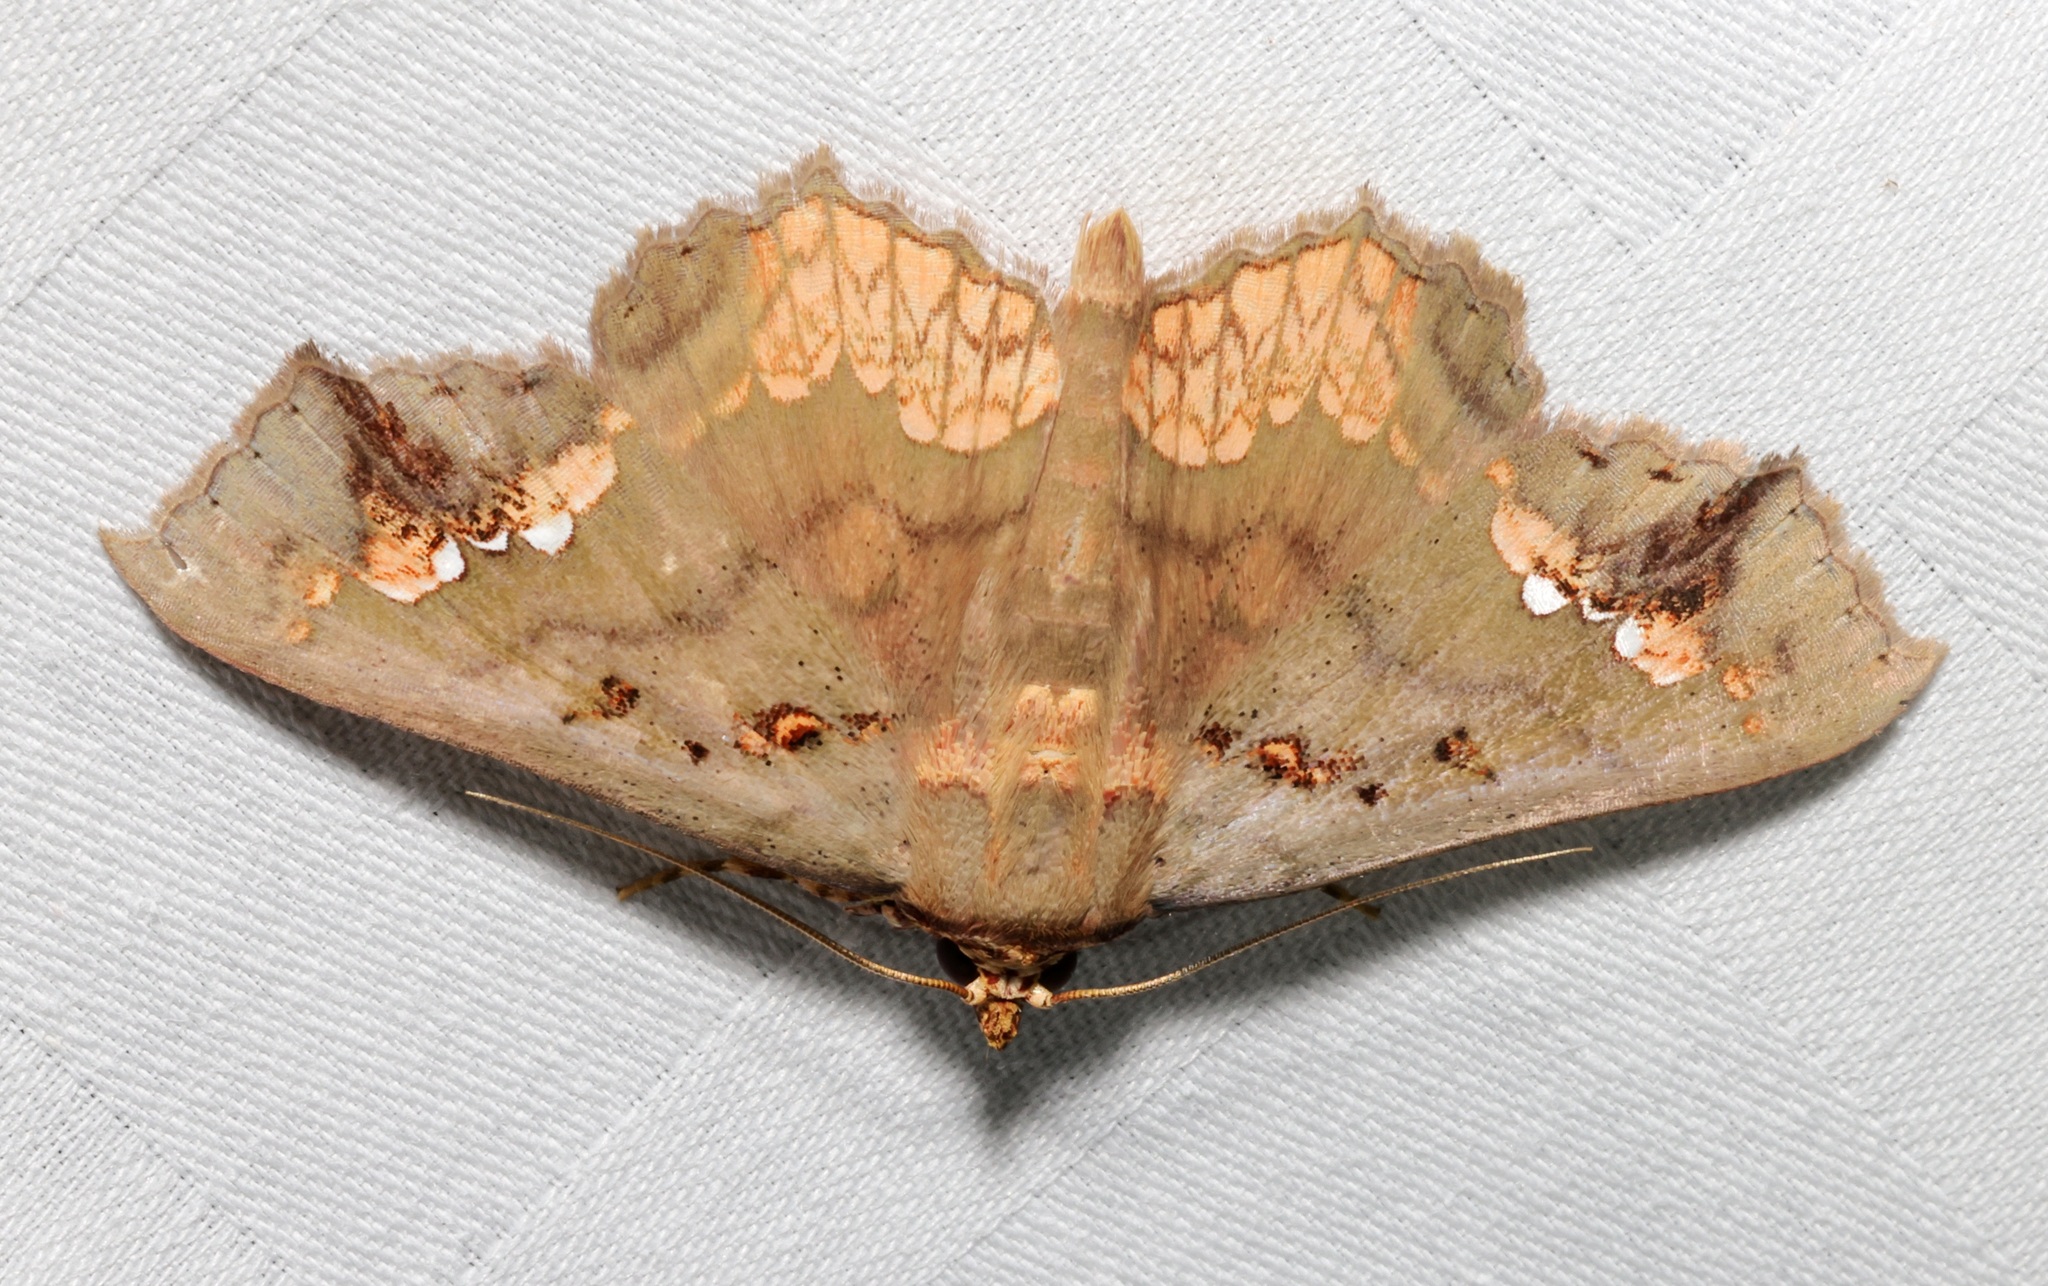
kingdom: Animalia
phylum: Arthropoda
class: Insecta
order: Lepidoptera
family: Erebidae
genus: Lopharthrum
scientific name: Lopharthrum comprimens
